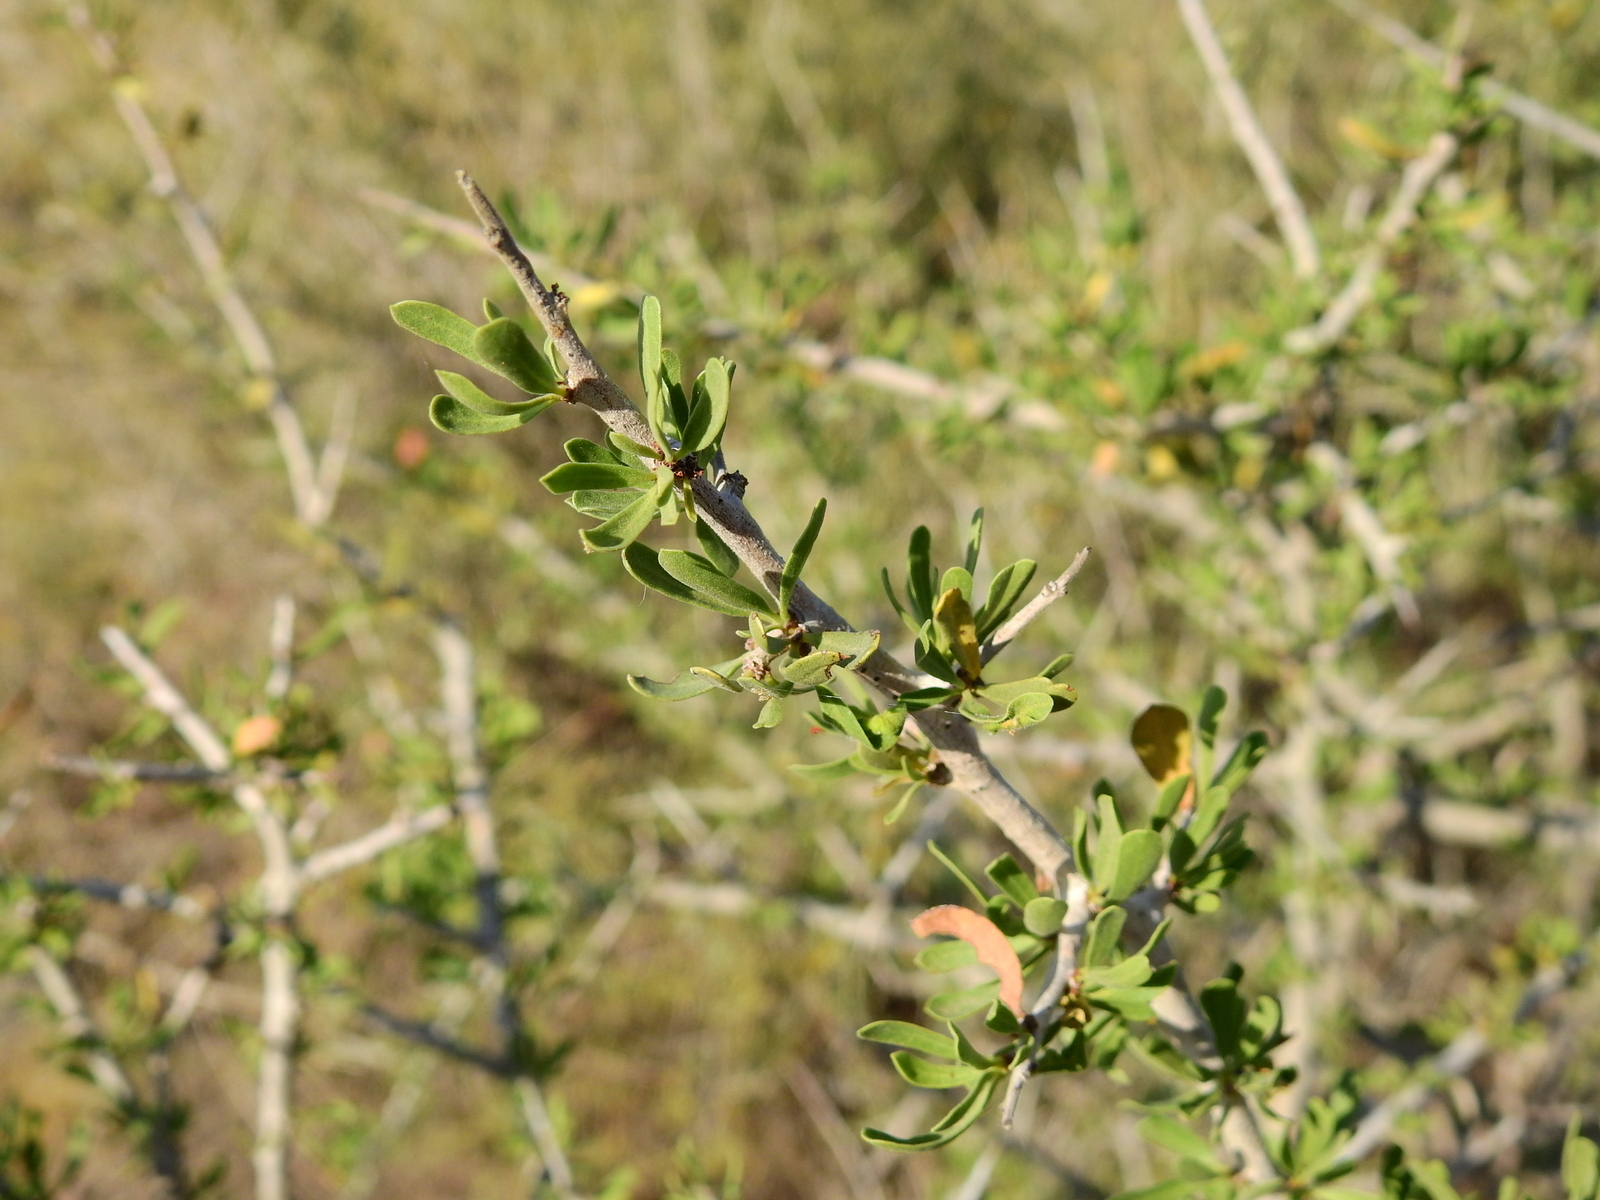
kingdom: Plantae
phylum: Tracheophyta
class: Magnoliopsida
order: Sapindales
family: Anacardiaceae
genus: Schinus
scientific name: Schinus fasciculata
